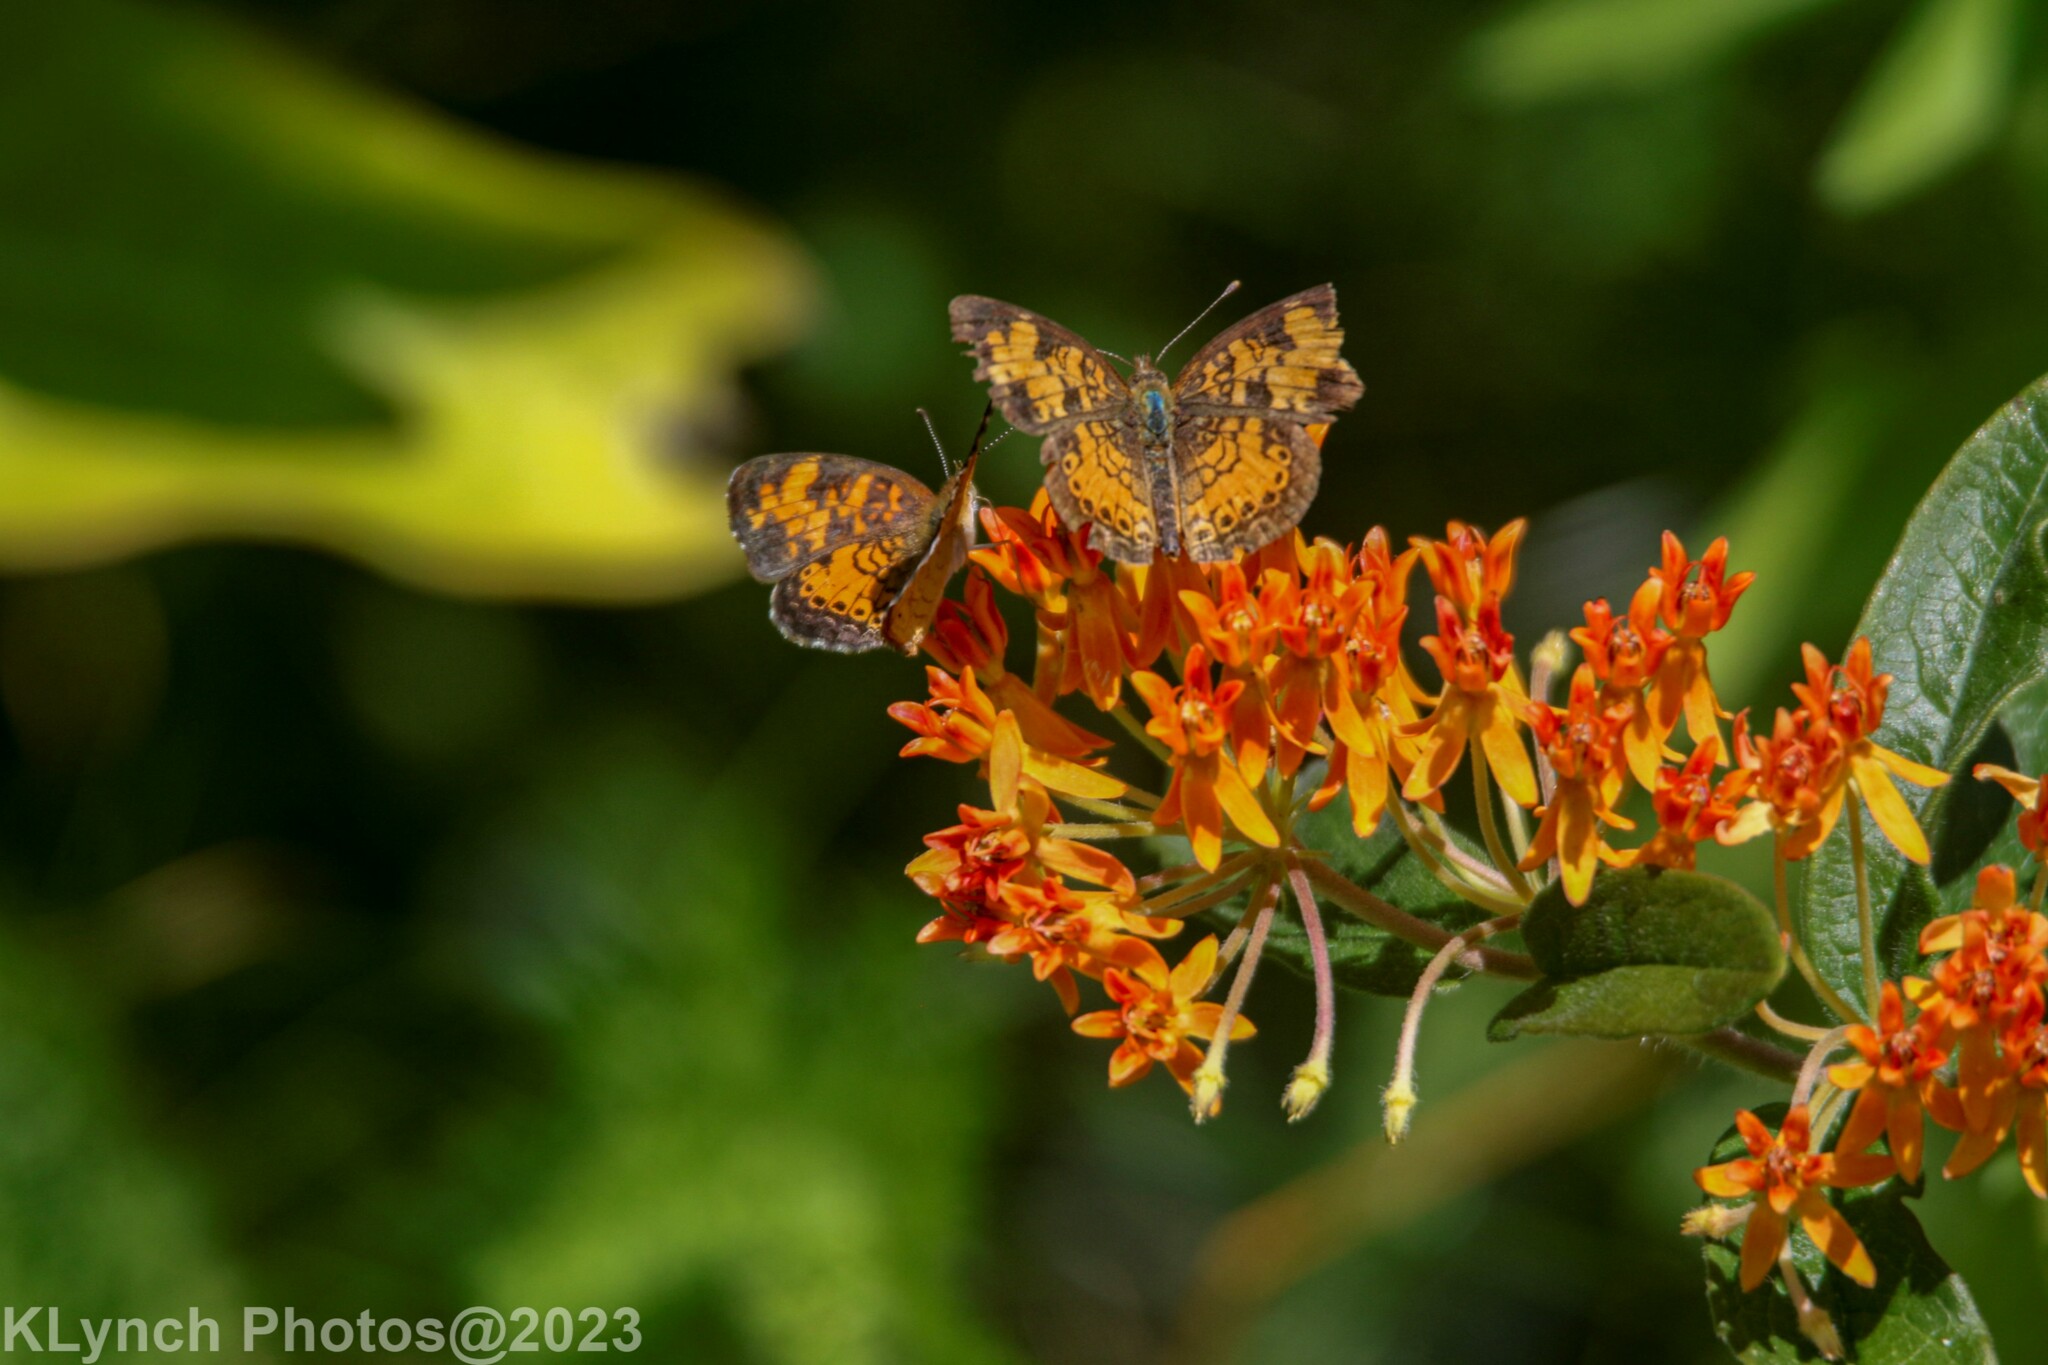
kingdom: Animalia
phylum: Arthropoda
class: Insecta
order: Lepidoptera
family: Nymphalidae
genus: Phyciodes
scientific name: Phyciodes tharos
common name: Pearl crescent
